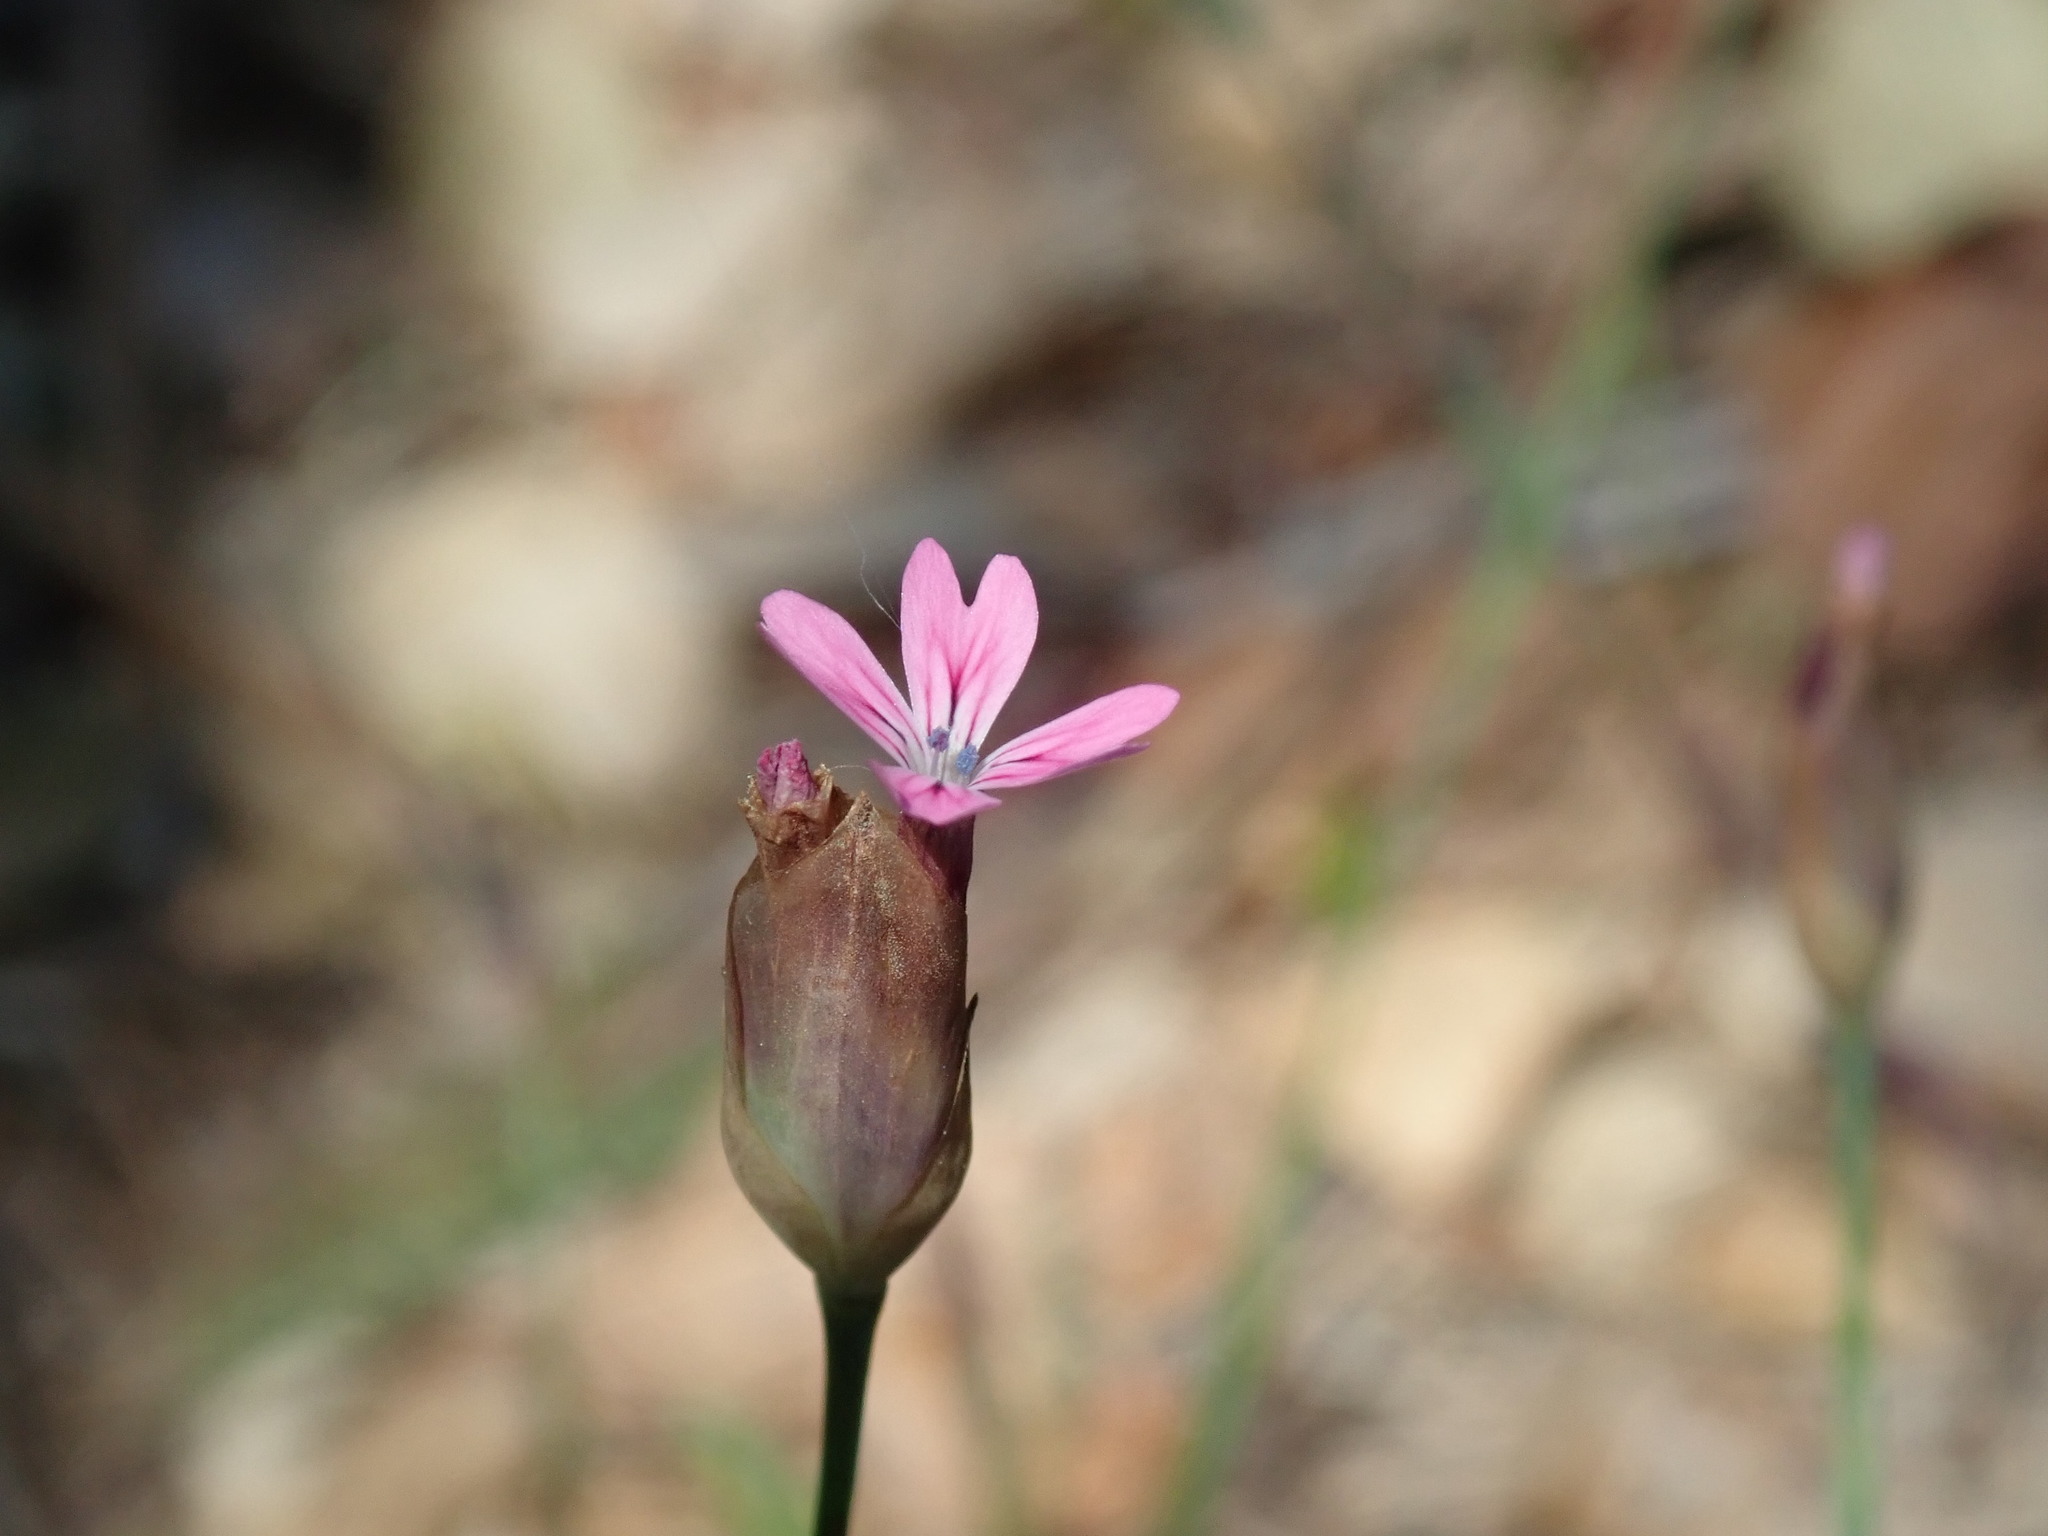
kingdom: Plantae
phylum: Tracheophyta
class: Magnoliopsida
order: Caryophyllales
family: Caryophyllaceae
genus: Petrorhagia
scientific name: Petrorhagia dubia
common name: Hairypink
